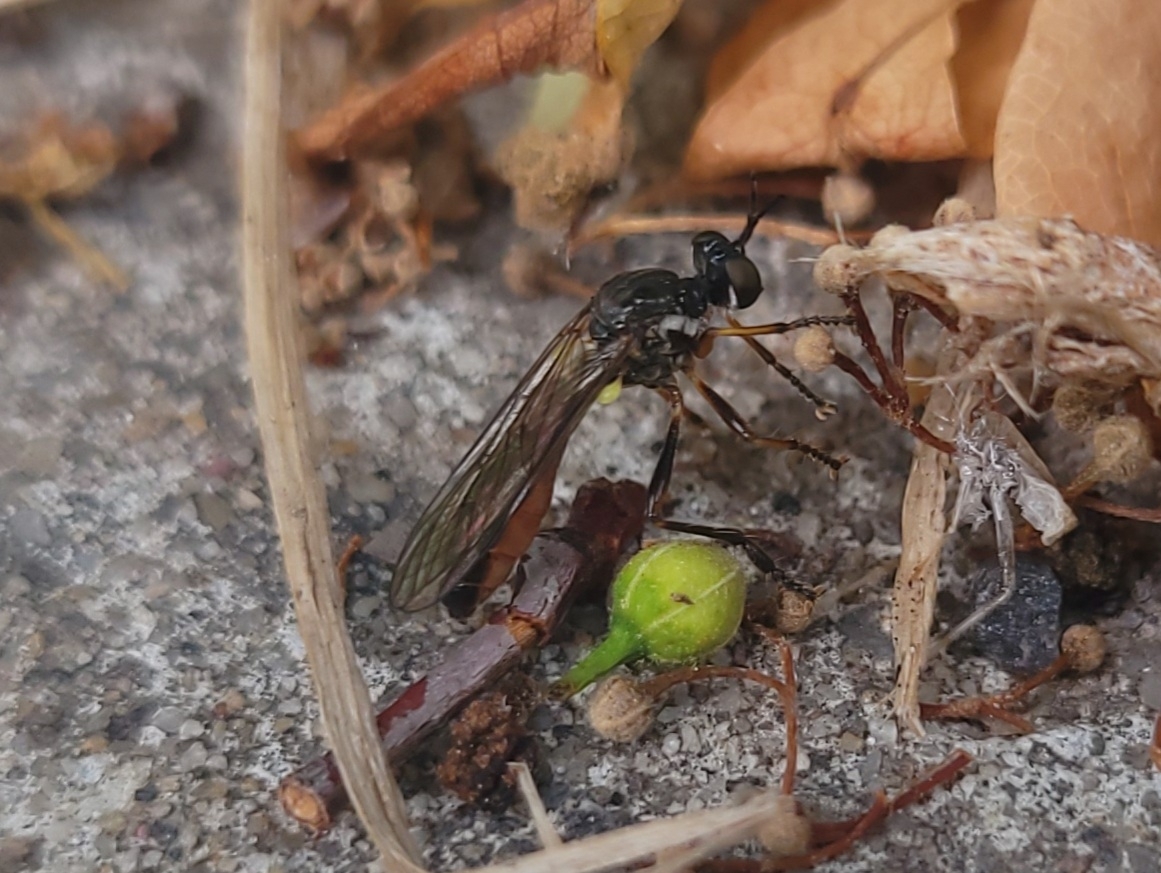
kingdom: Animalia
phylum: Arthropoda
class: Insecta
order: Diptera
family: Asilidae
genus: Dioctria
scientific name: Dioctria hyalipennis
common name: Stripe-legged robberfly
